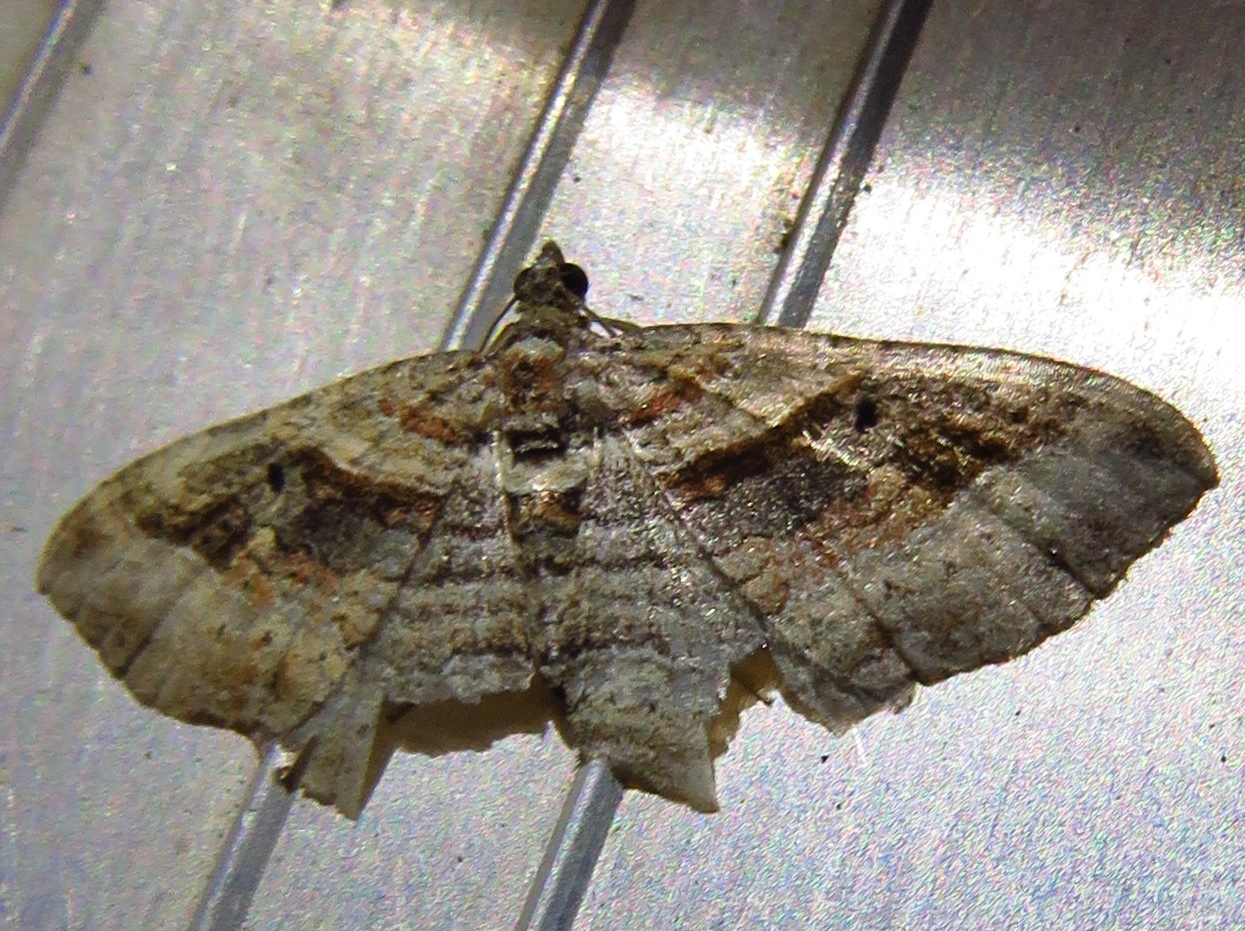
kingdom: Animalia
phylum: Arthropoda
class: Insecta
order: Lepidoptera
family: Geometridae
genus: Costaconvexa
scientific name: Costaconvexa centrostrigaria
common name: Bent-line carpet
